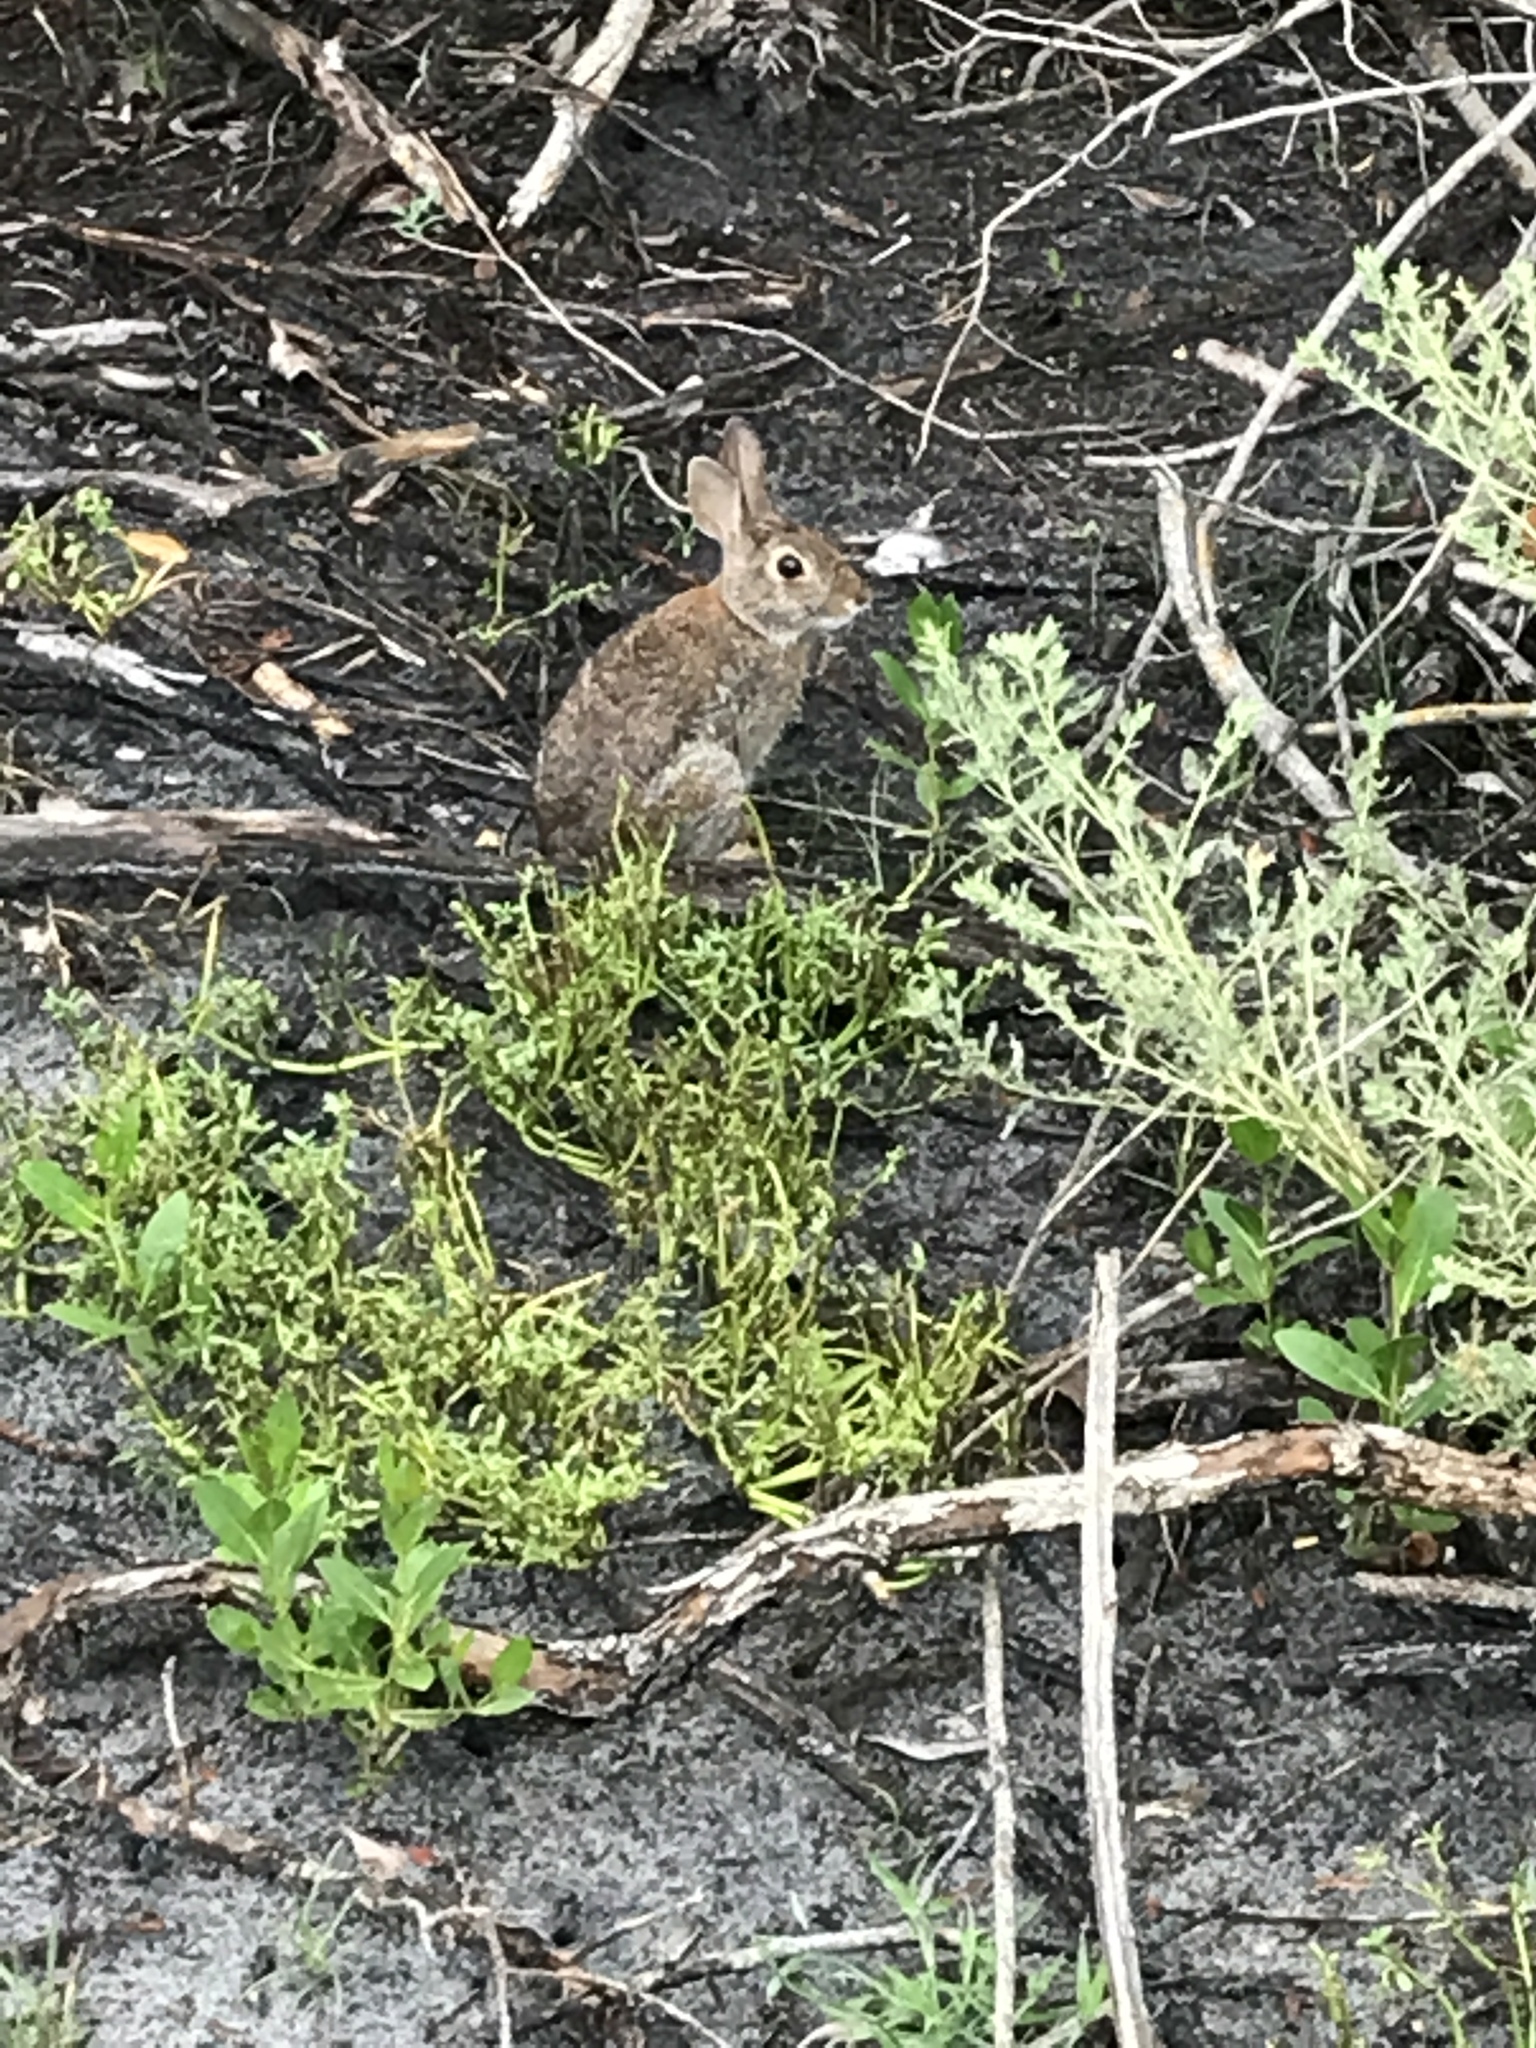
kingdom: Animalia
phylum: Chordata
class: Mammalia
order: Lagomorpha
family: Leporidae
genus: Sylvilagus
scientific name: Sylvilagus floridanus
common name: Eastern cottontail
